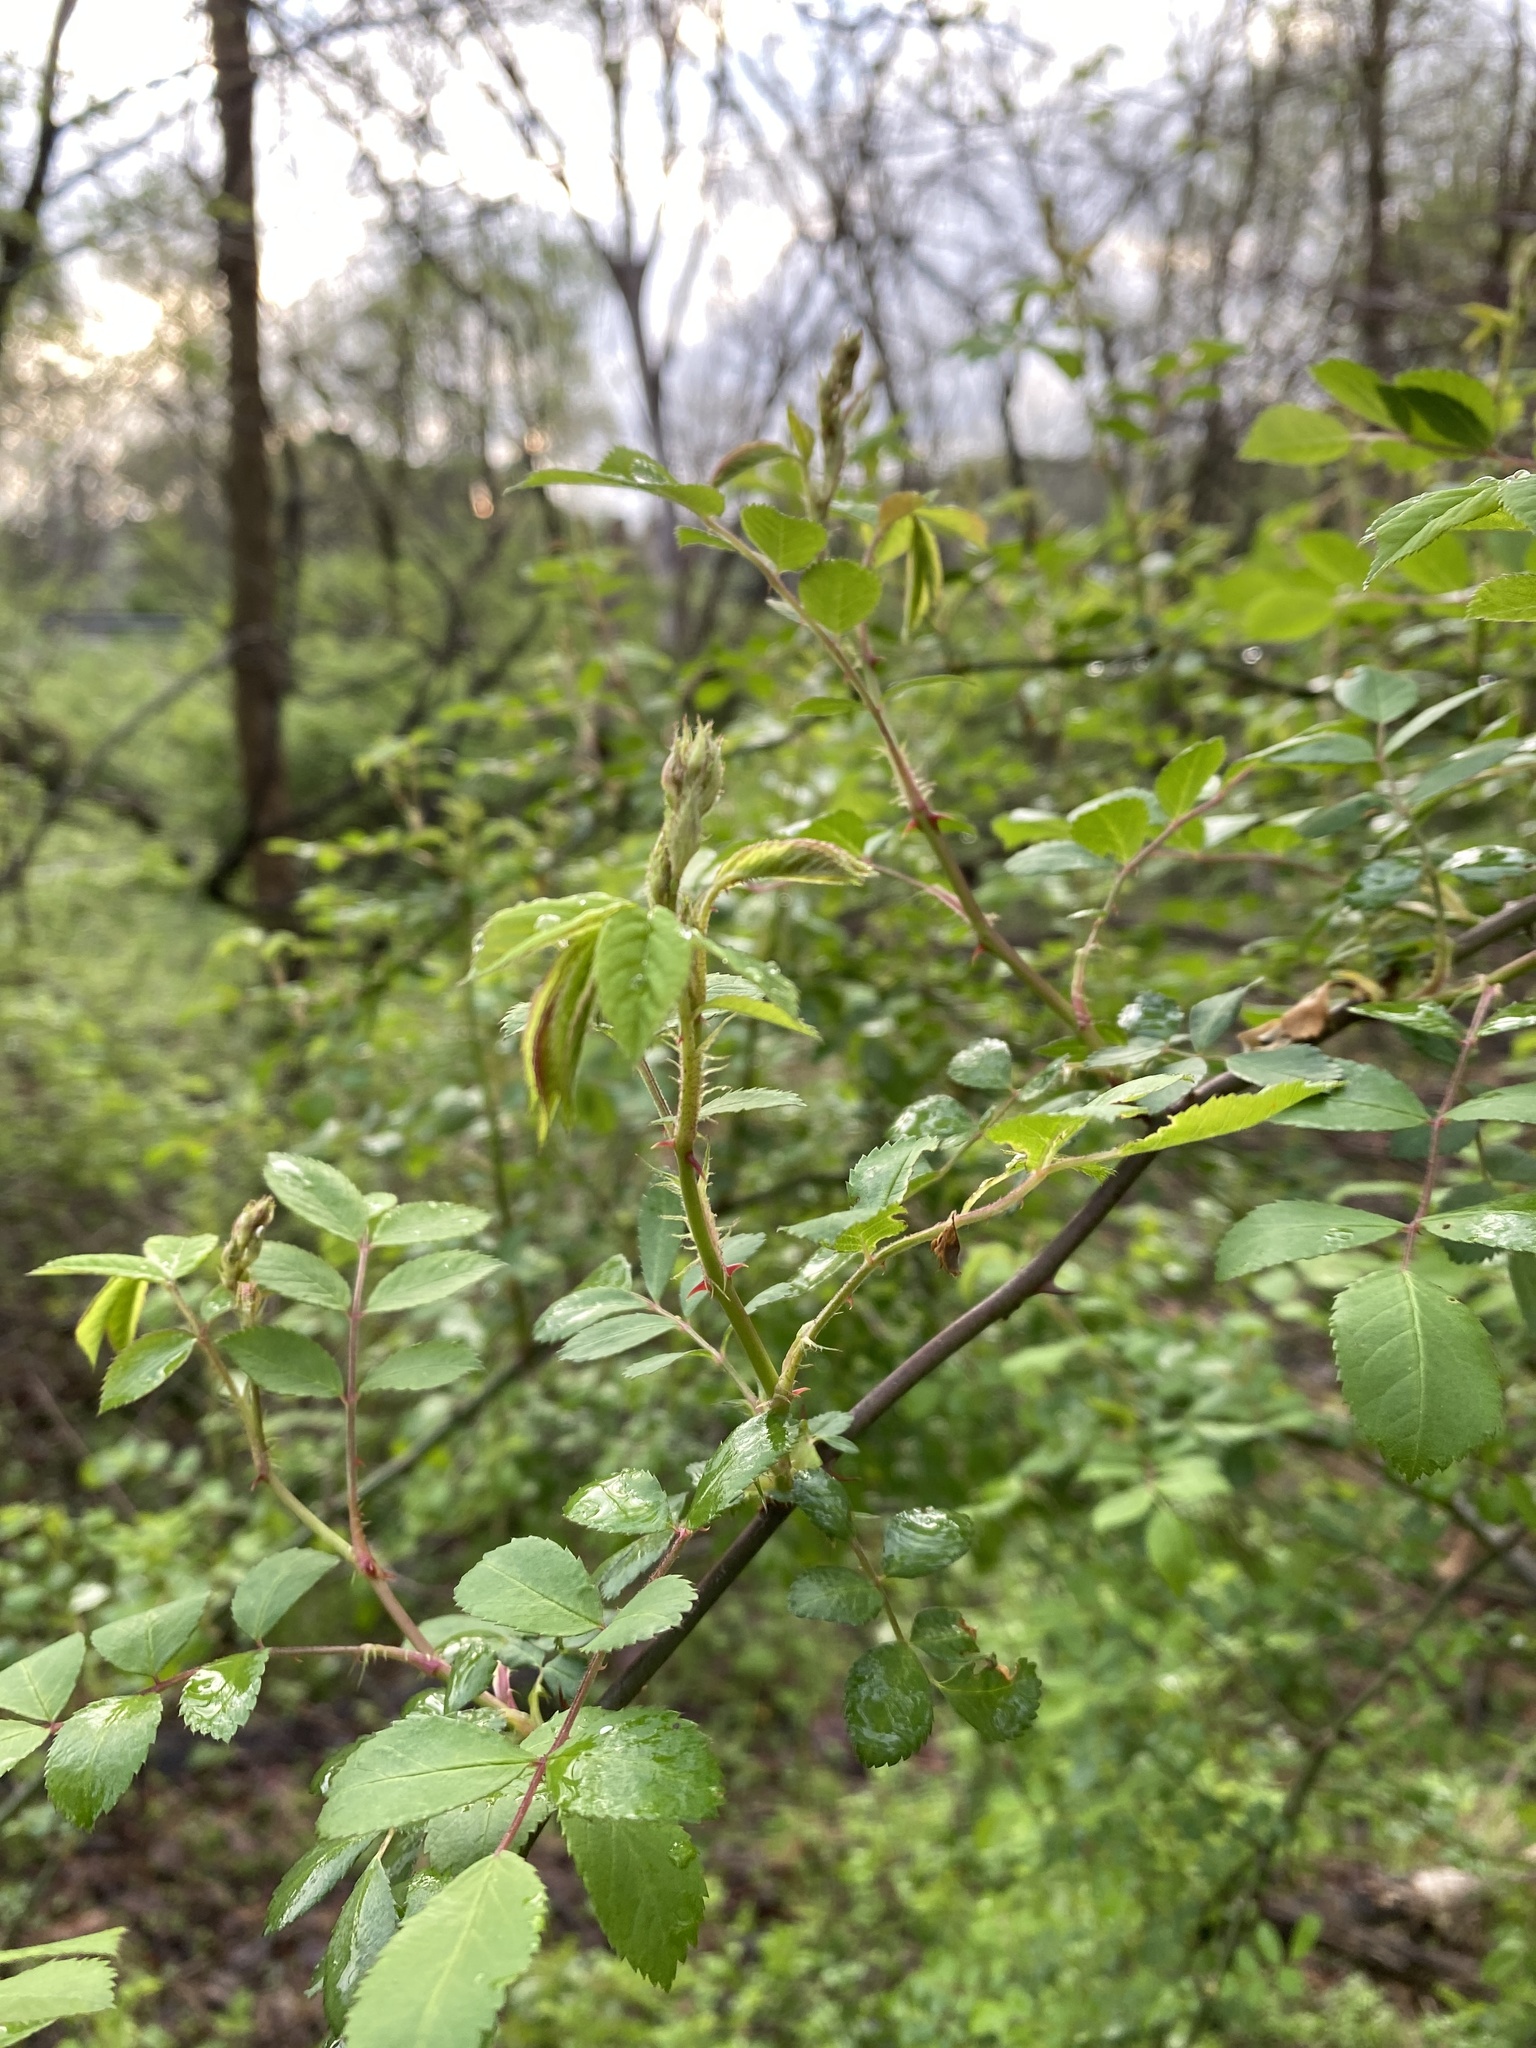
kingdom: Plantae
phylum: Tracheophyta
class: Magnoliopsida
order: Rosales
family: Rosaceae
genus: Rosa
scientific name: Rosa multiflora
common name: Multiflora rose
